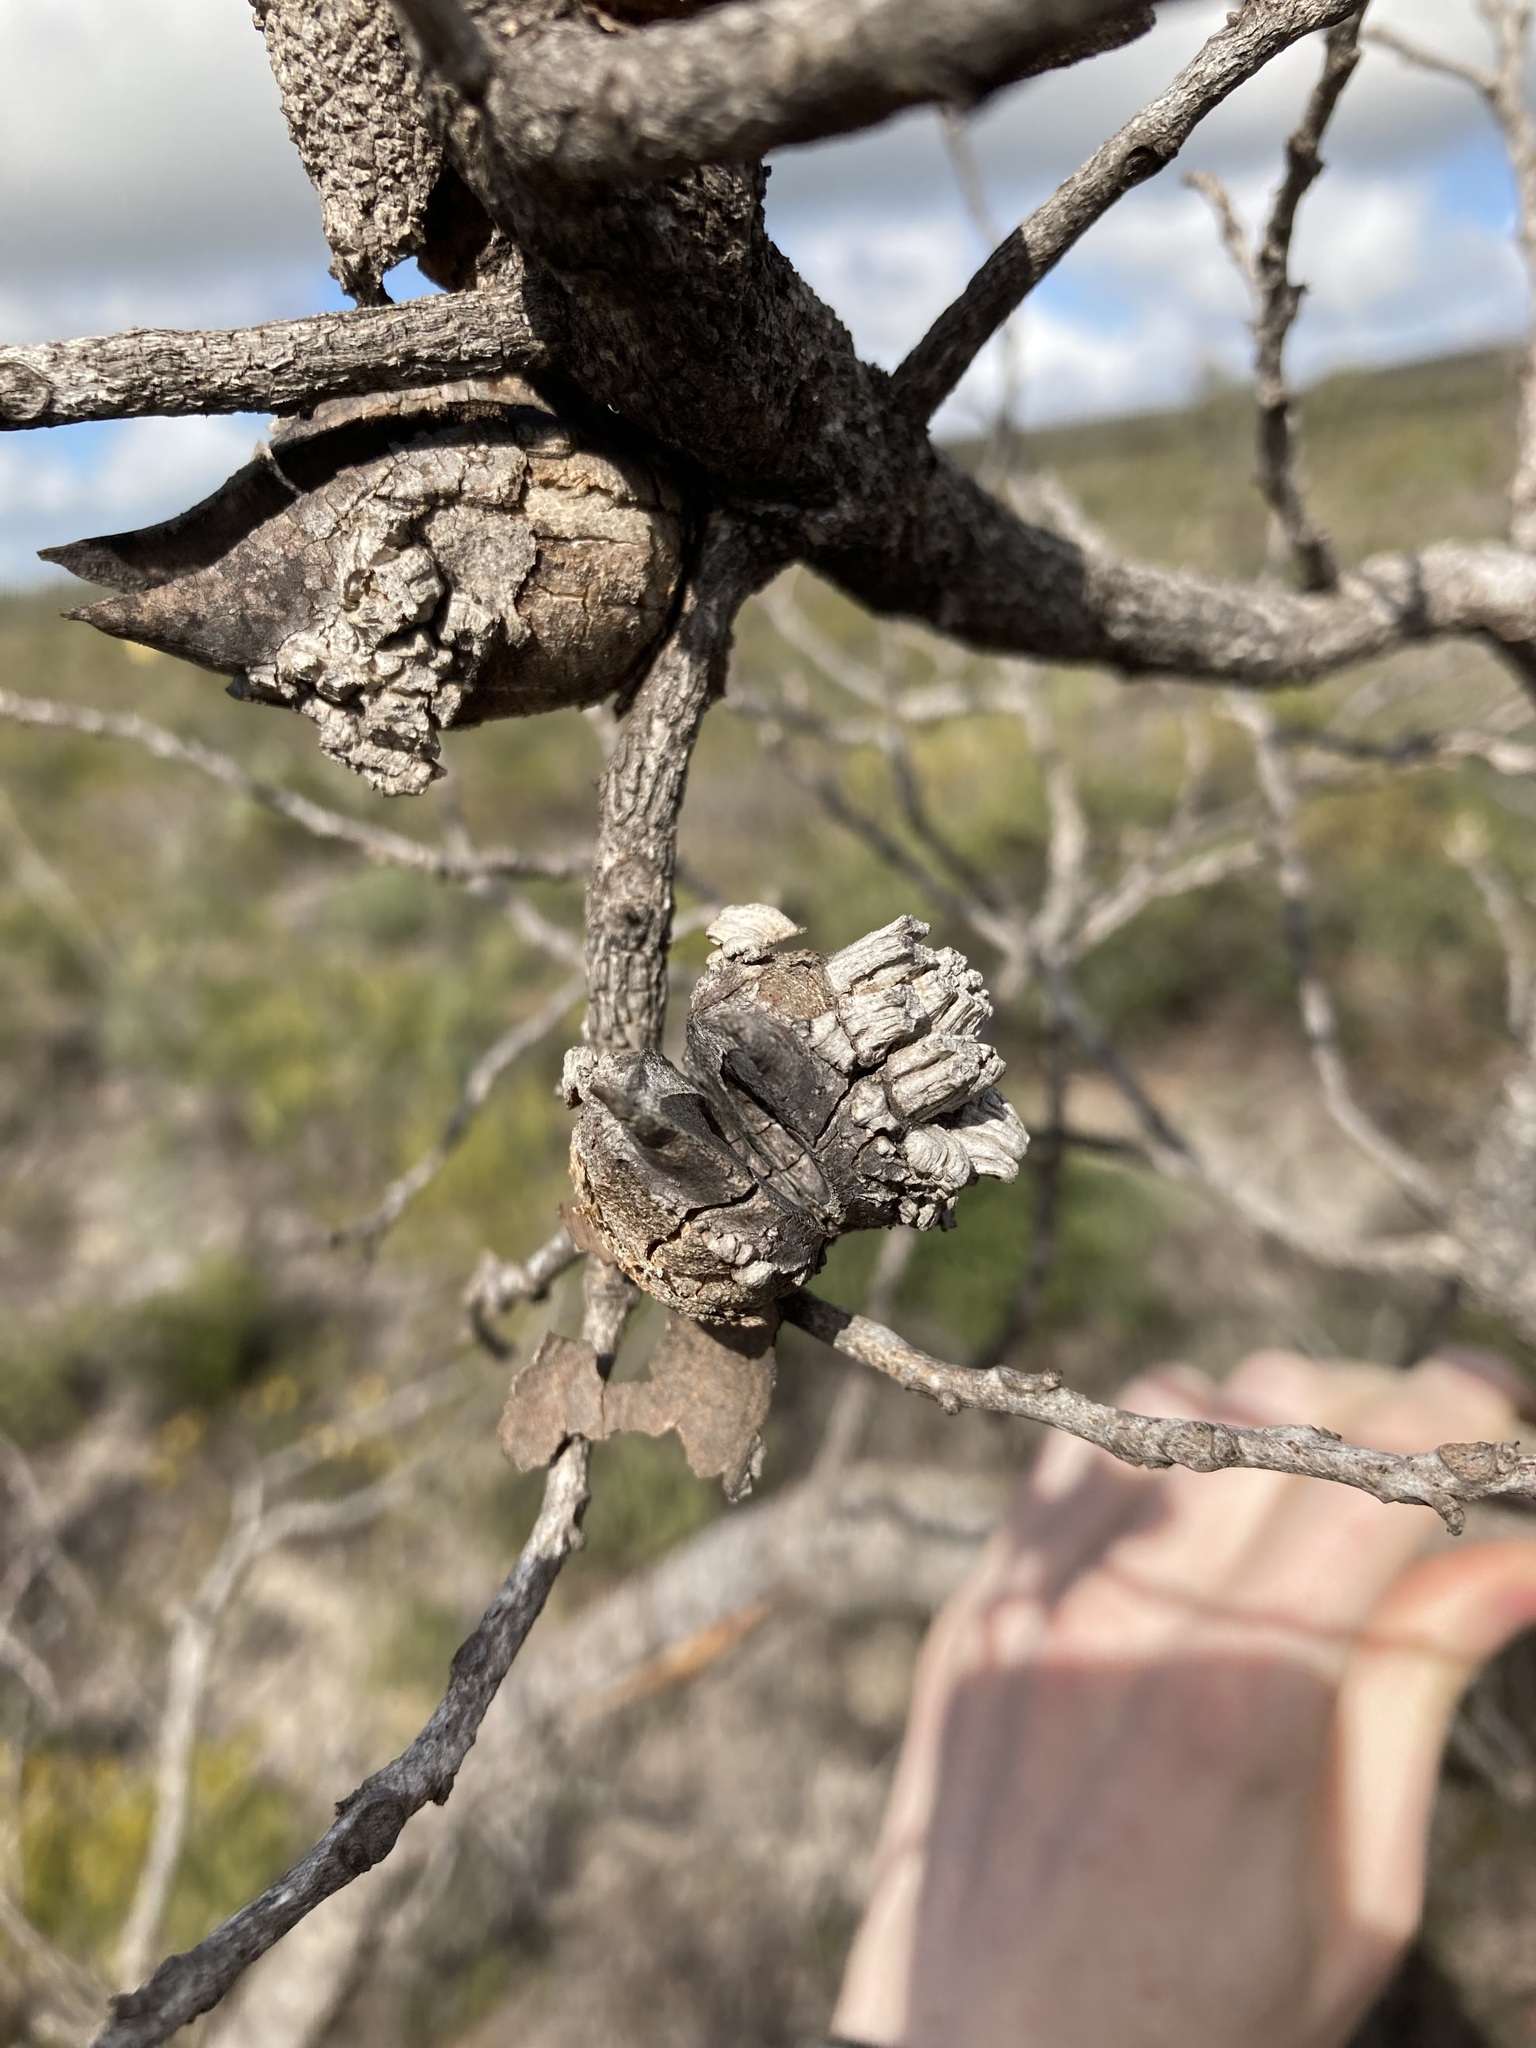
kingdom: Plantae
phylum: Tracheophyta
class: Magnoliopsida
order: Proteales
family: Proteaceae
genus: Hakea
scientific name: Hakea psilorrhyncha
